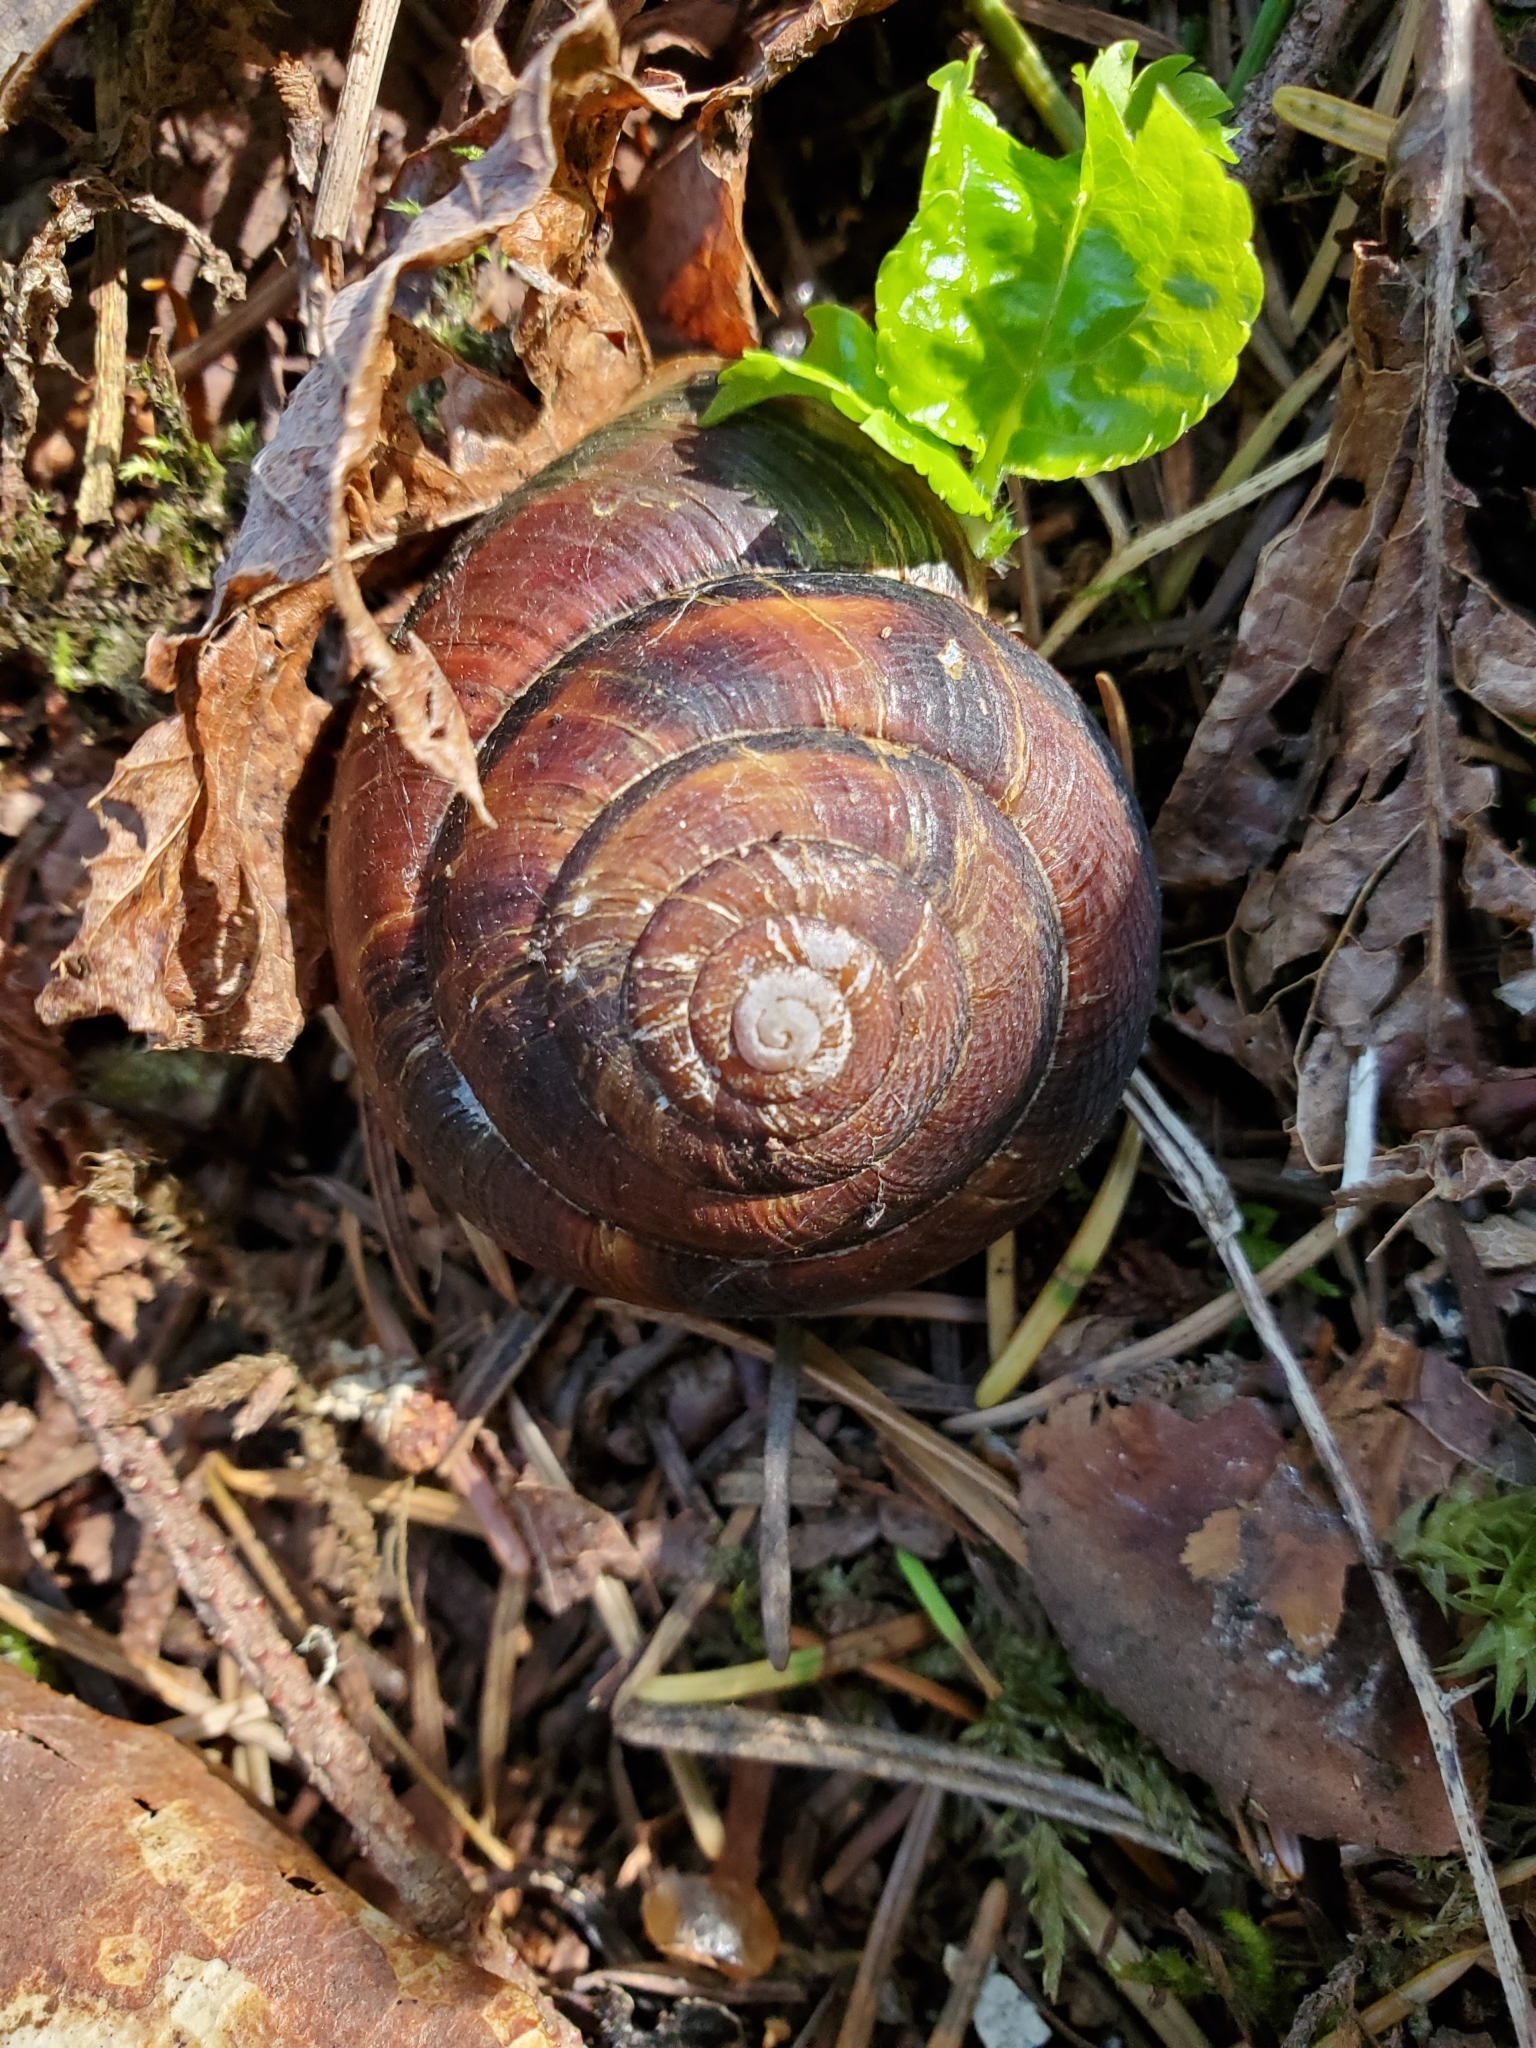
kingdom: Animalia
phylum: Mollusca
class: Gastropoda
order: Stylommatophora
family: Xanthonychidae
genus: Monadenia
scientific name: Monadenia fidelis
